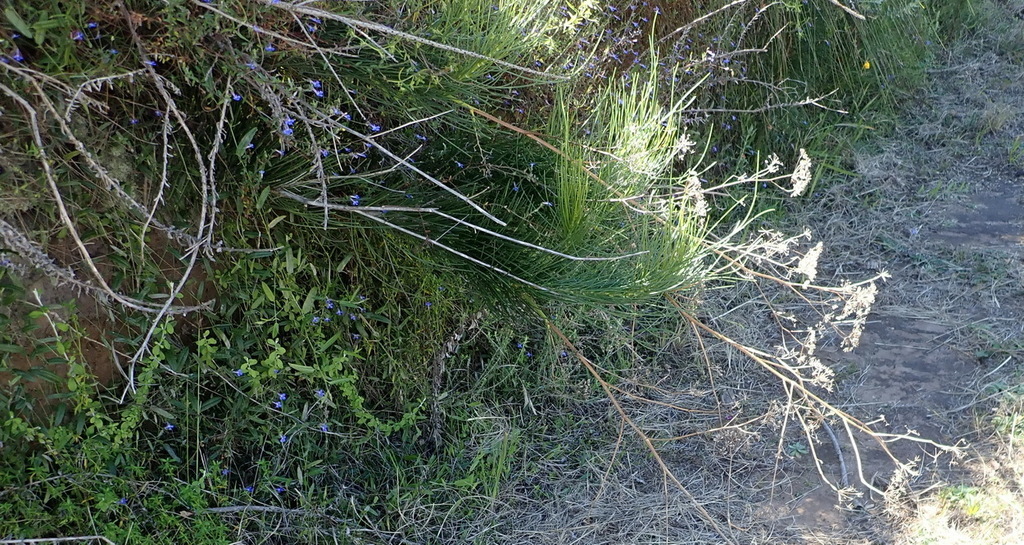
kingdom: Plantae
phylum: Tracheophyta
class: Magnoliopsida
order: Apiales
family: Apiaceae
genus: Anginon
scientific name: Anginon difforme
